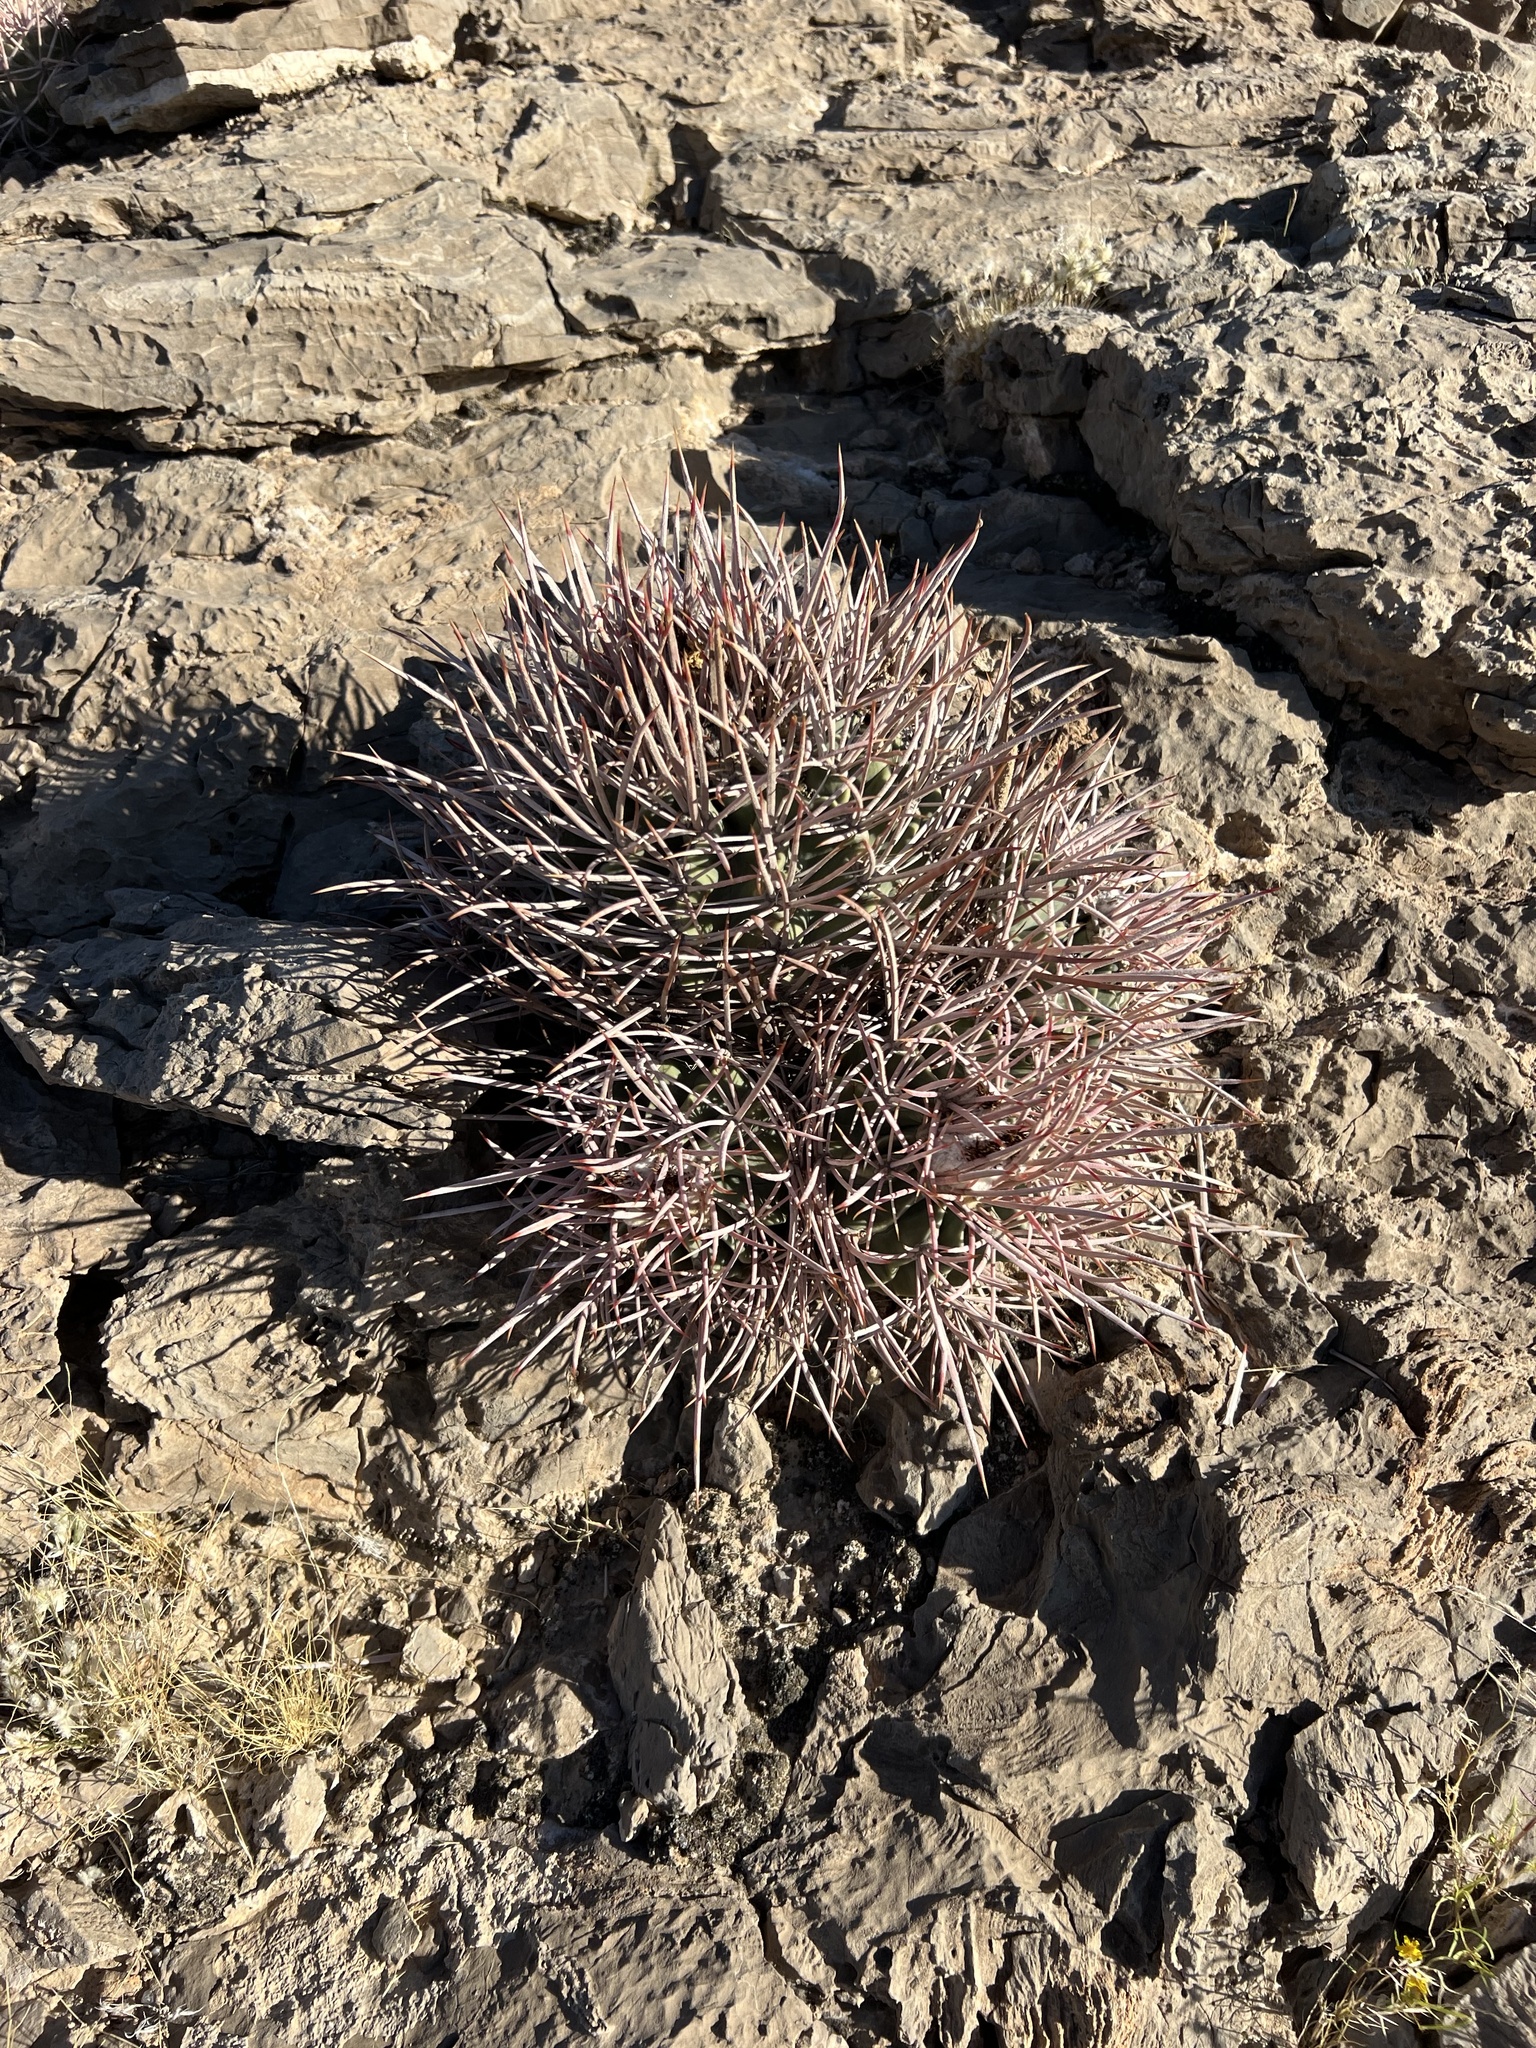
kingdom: Plantae
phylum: Tracheophyta
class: Magnoliopsida
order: Caryophyllales
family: Cactaceae
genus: Echinocactus
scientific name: Echinocactus polycephalus
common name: Cottontop cactus
